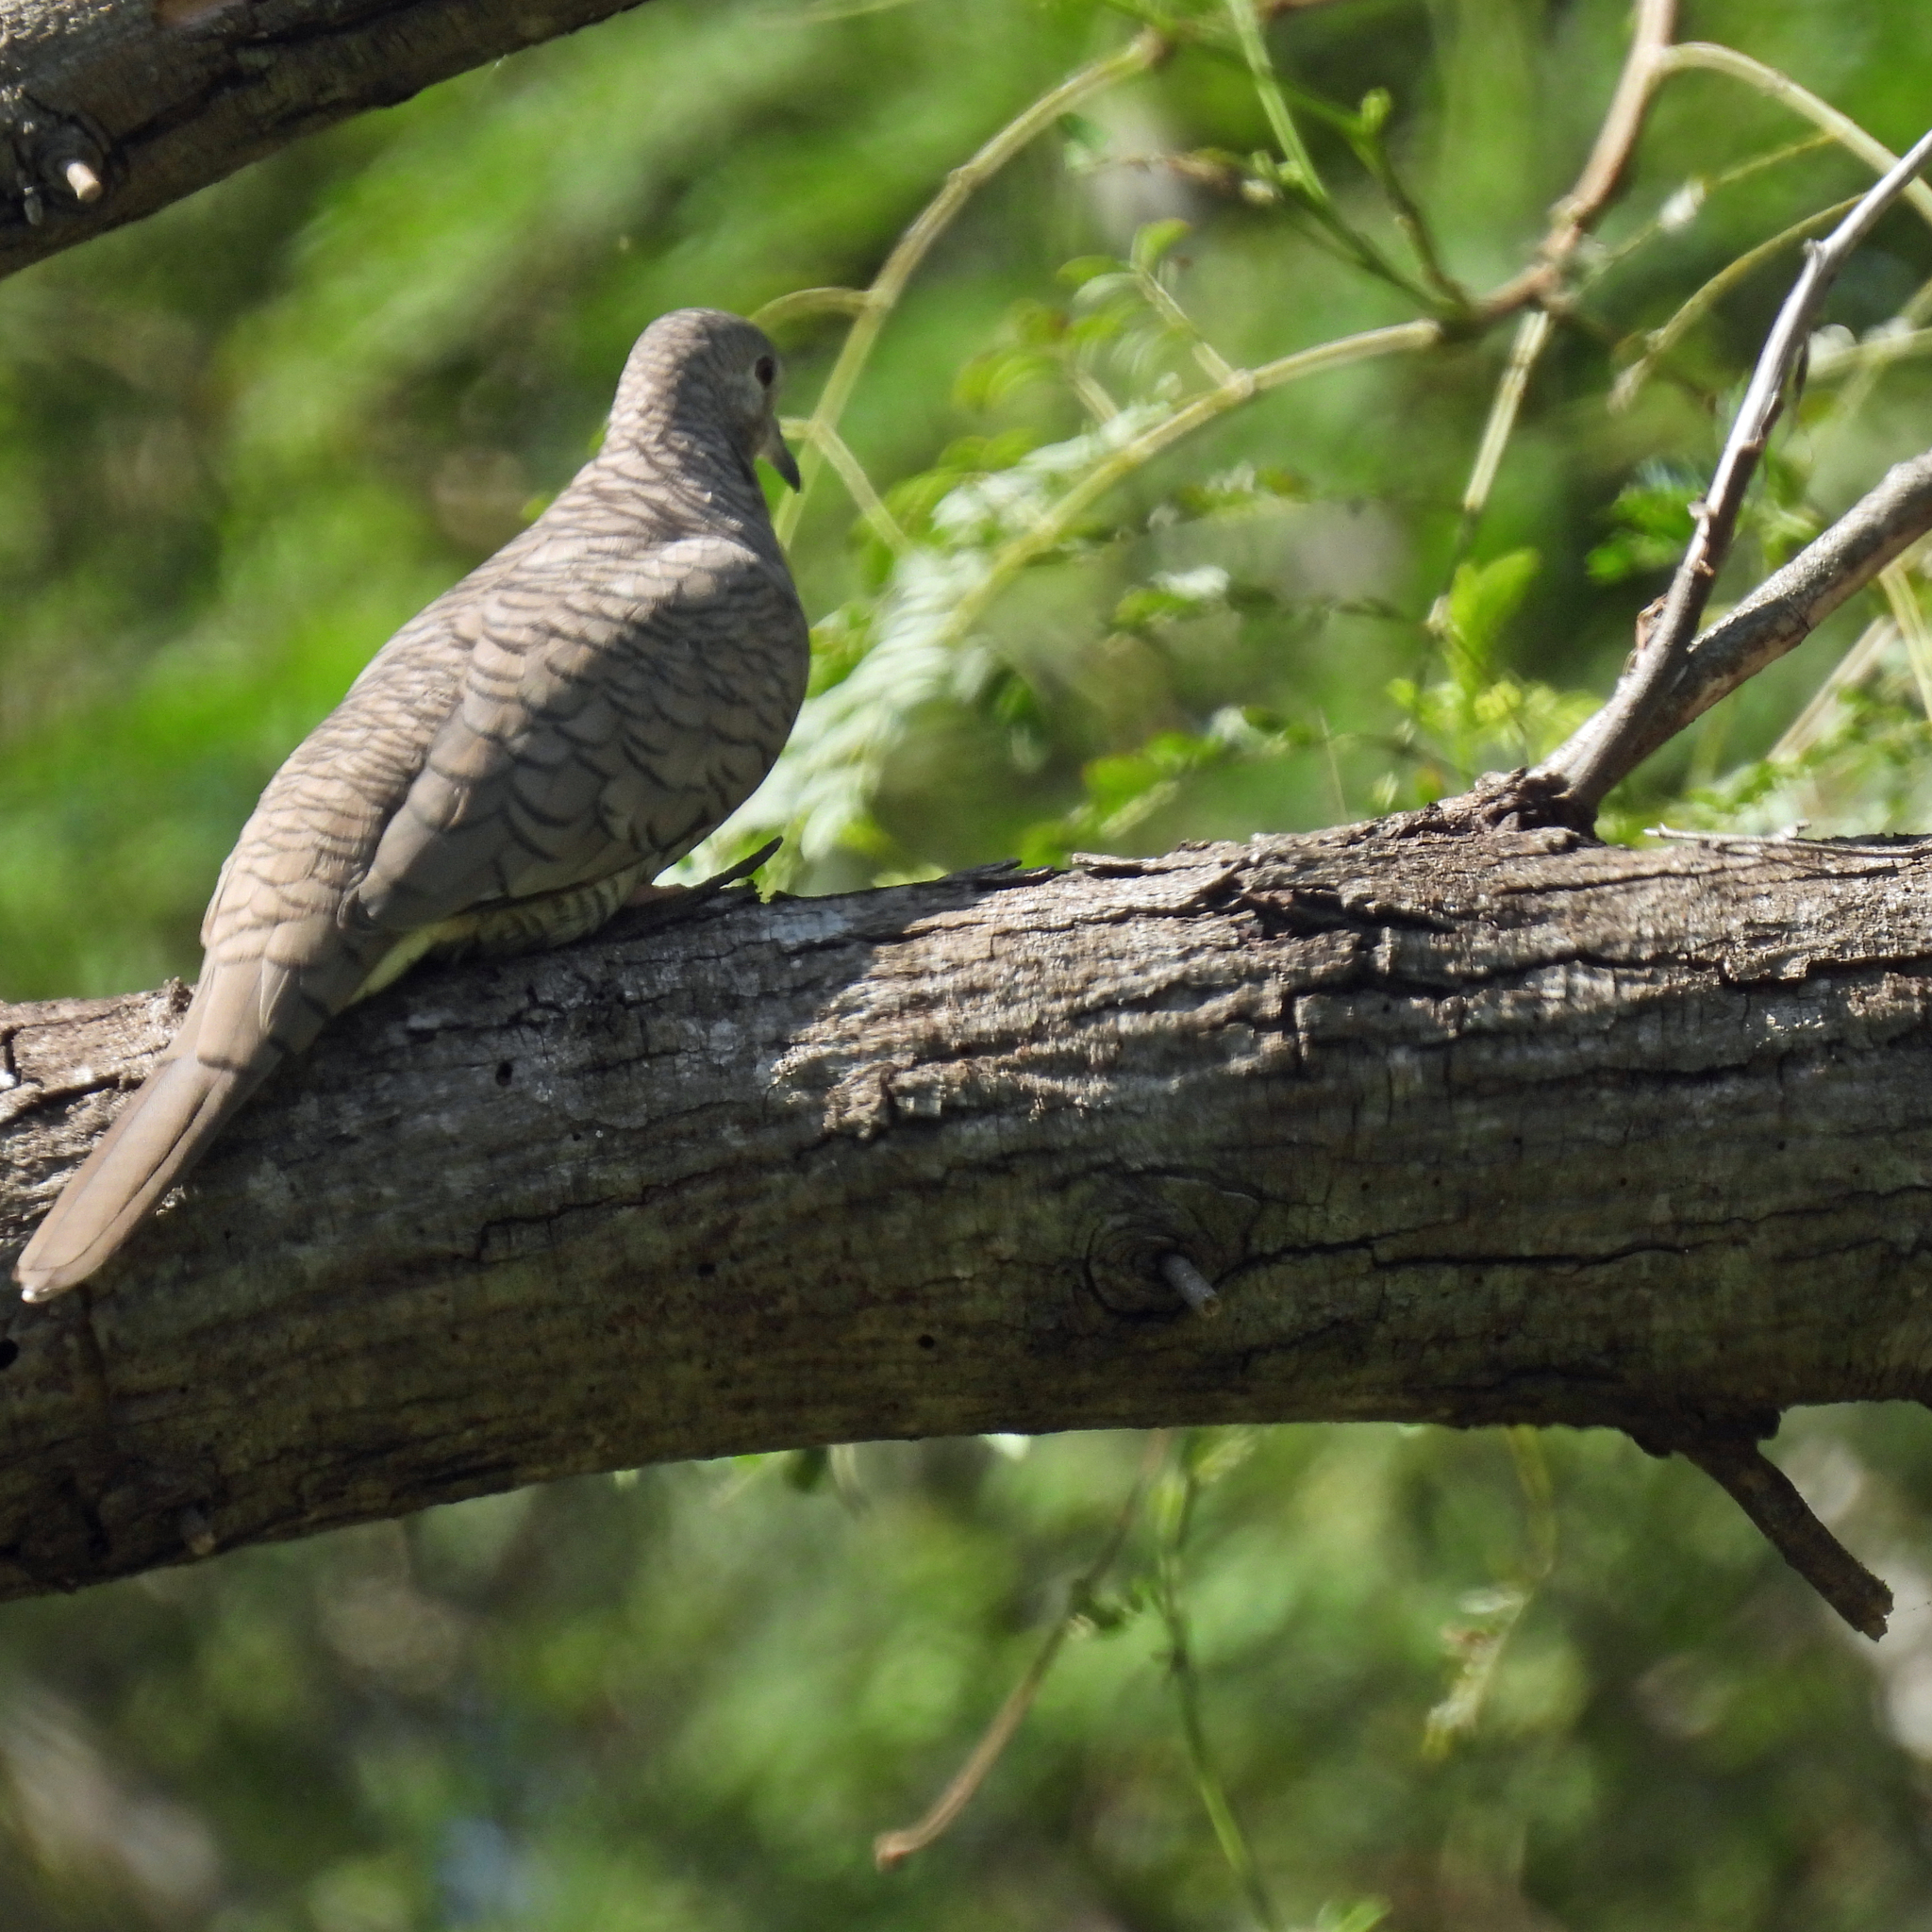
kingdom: Animalia
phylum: Chordata
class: Aves
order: Columbiformes
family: Columbidae
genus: Columbina
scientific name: Columbina inca
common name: Inca dove
